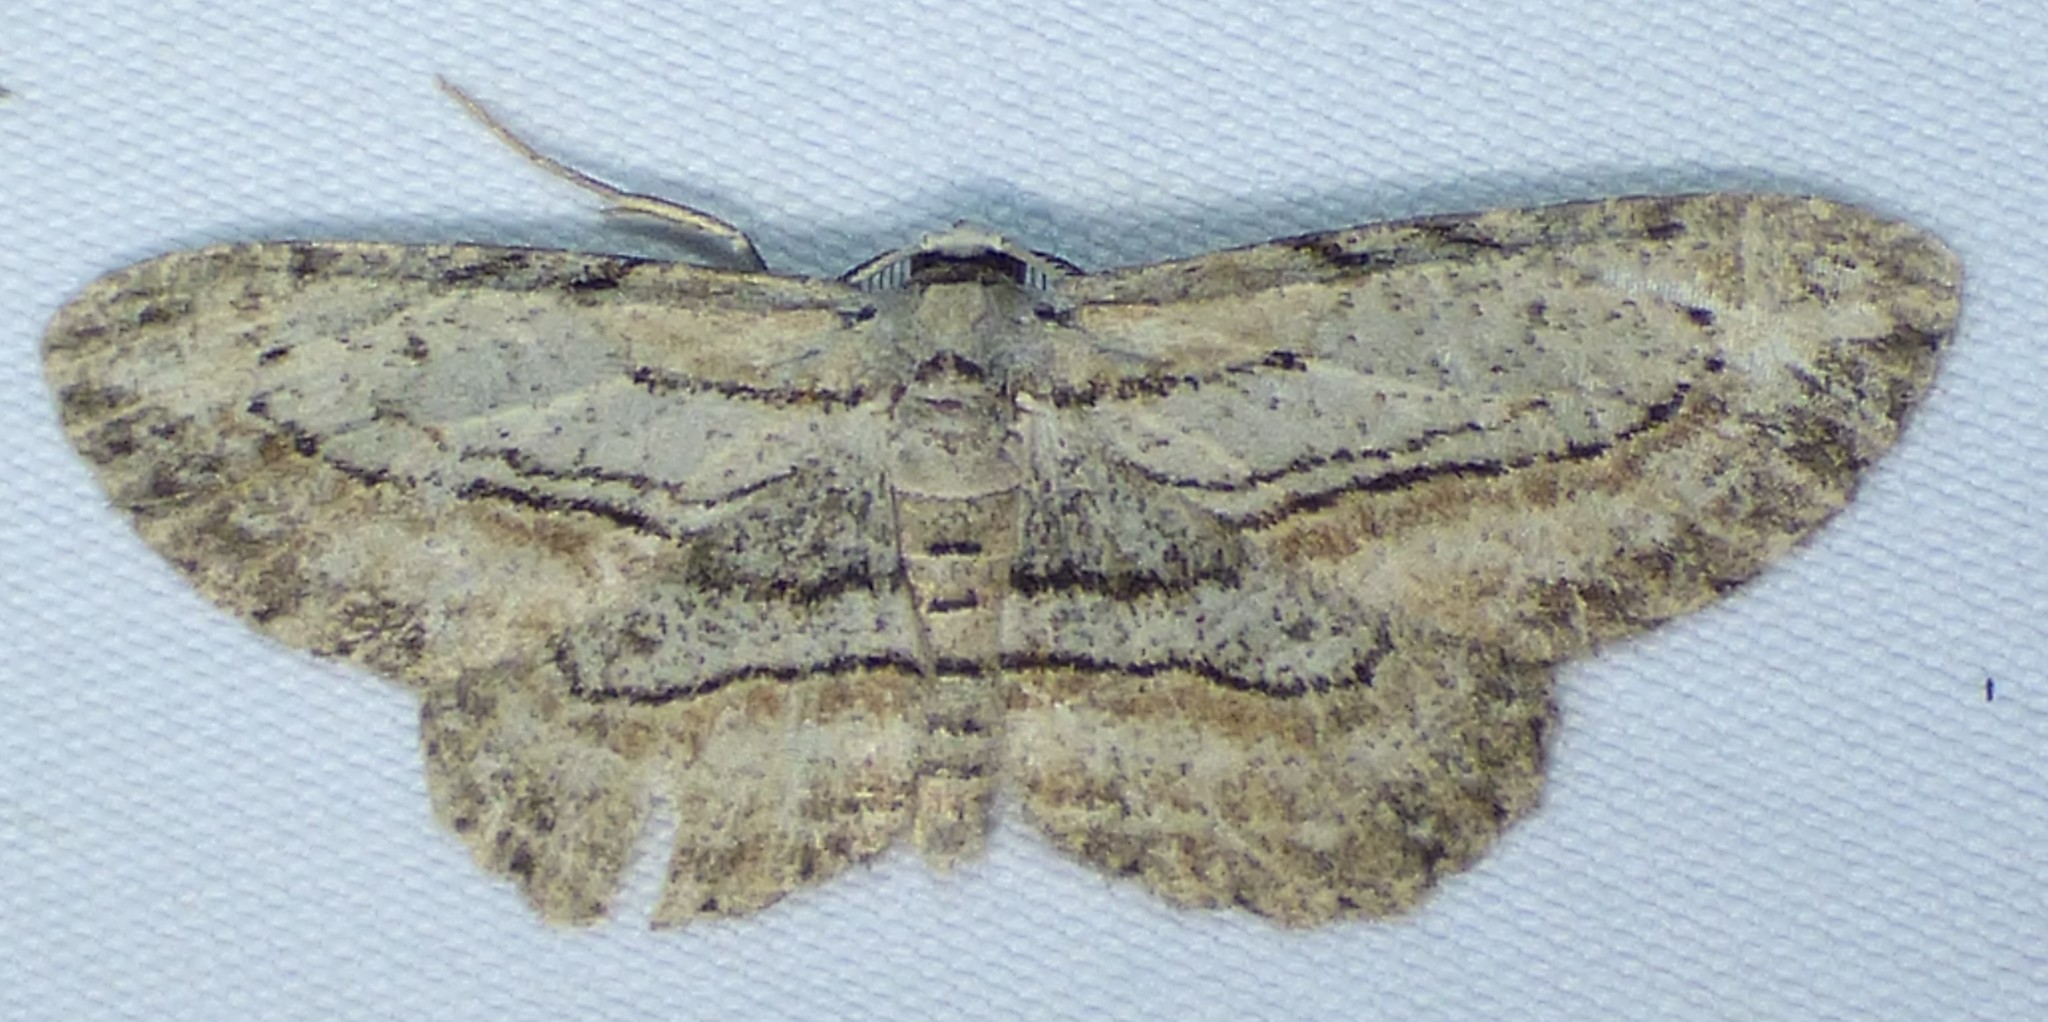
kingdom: Animalia
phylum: Arthropoda
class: Insecta
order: Lepidoptera
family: Geometridae
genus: Glena
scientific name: Glena plumosaria
